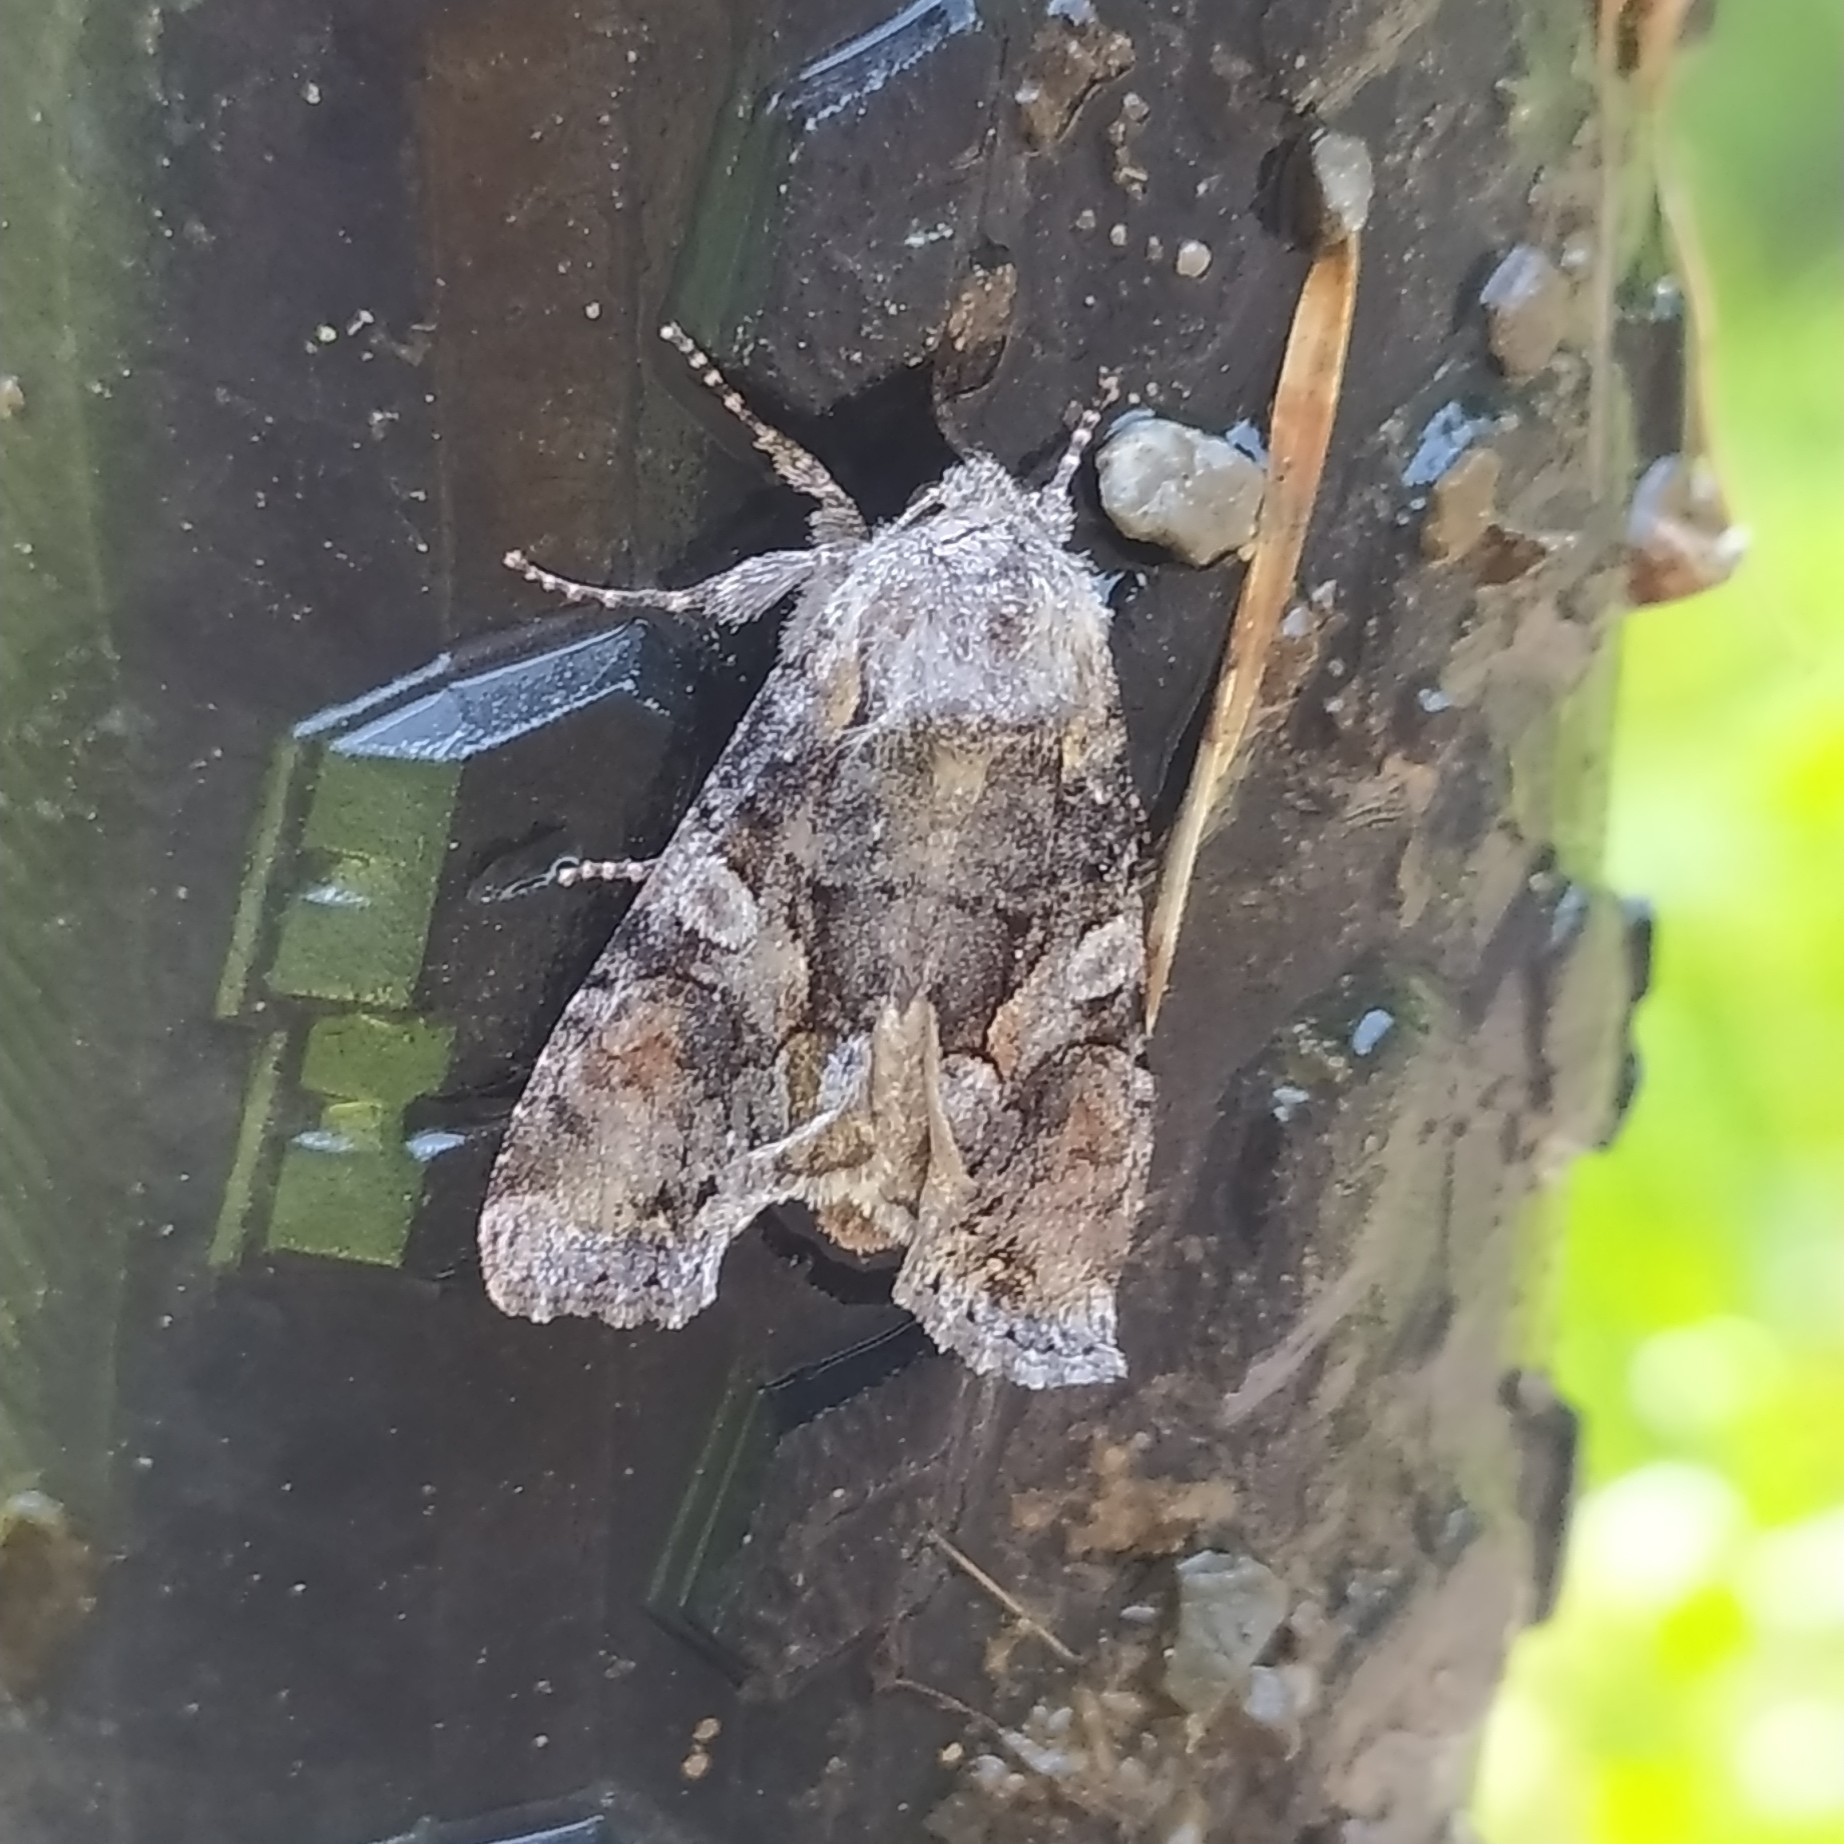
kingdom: Animalia
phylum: Arthropoda
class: Insecta
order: Lepidoptera
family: Noctuidae
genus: Lacanobia
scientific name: Lacanobia contigua
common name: Beautiful brocade
